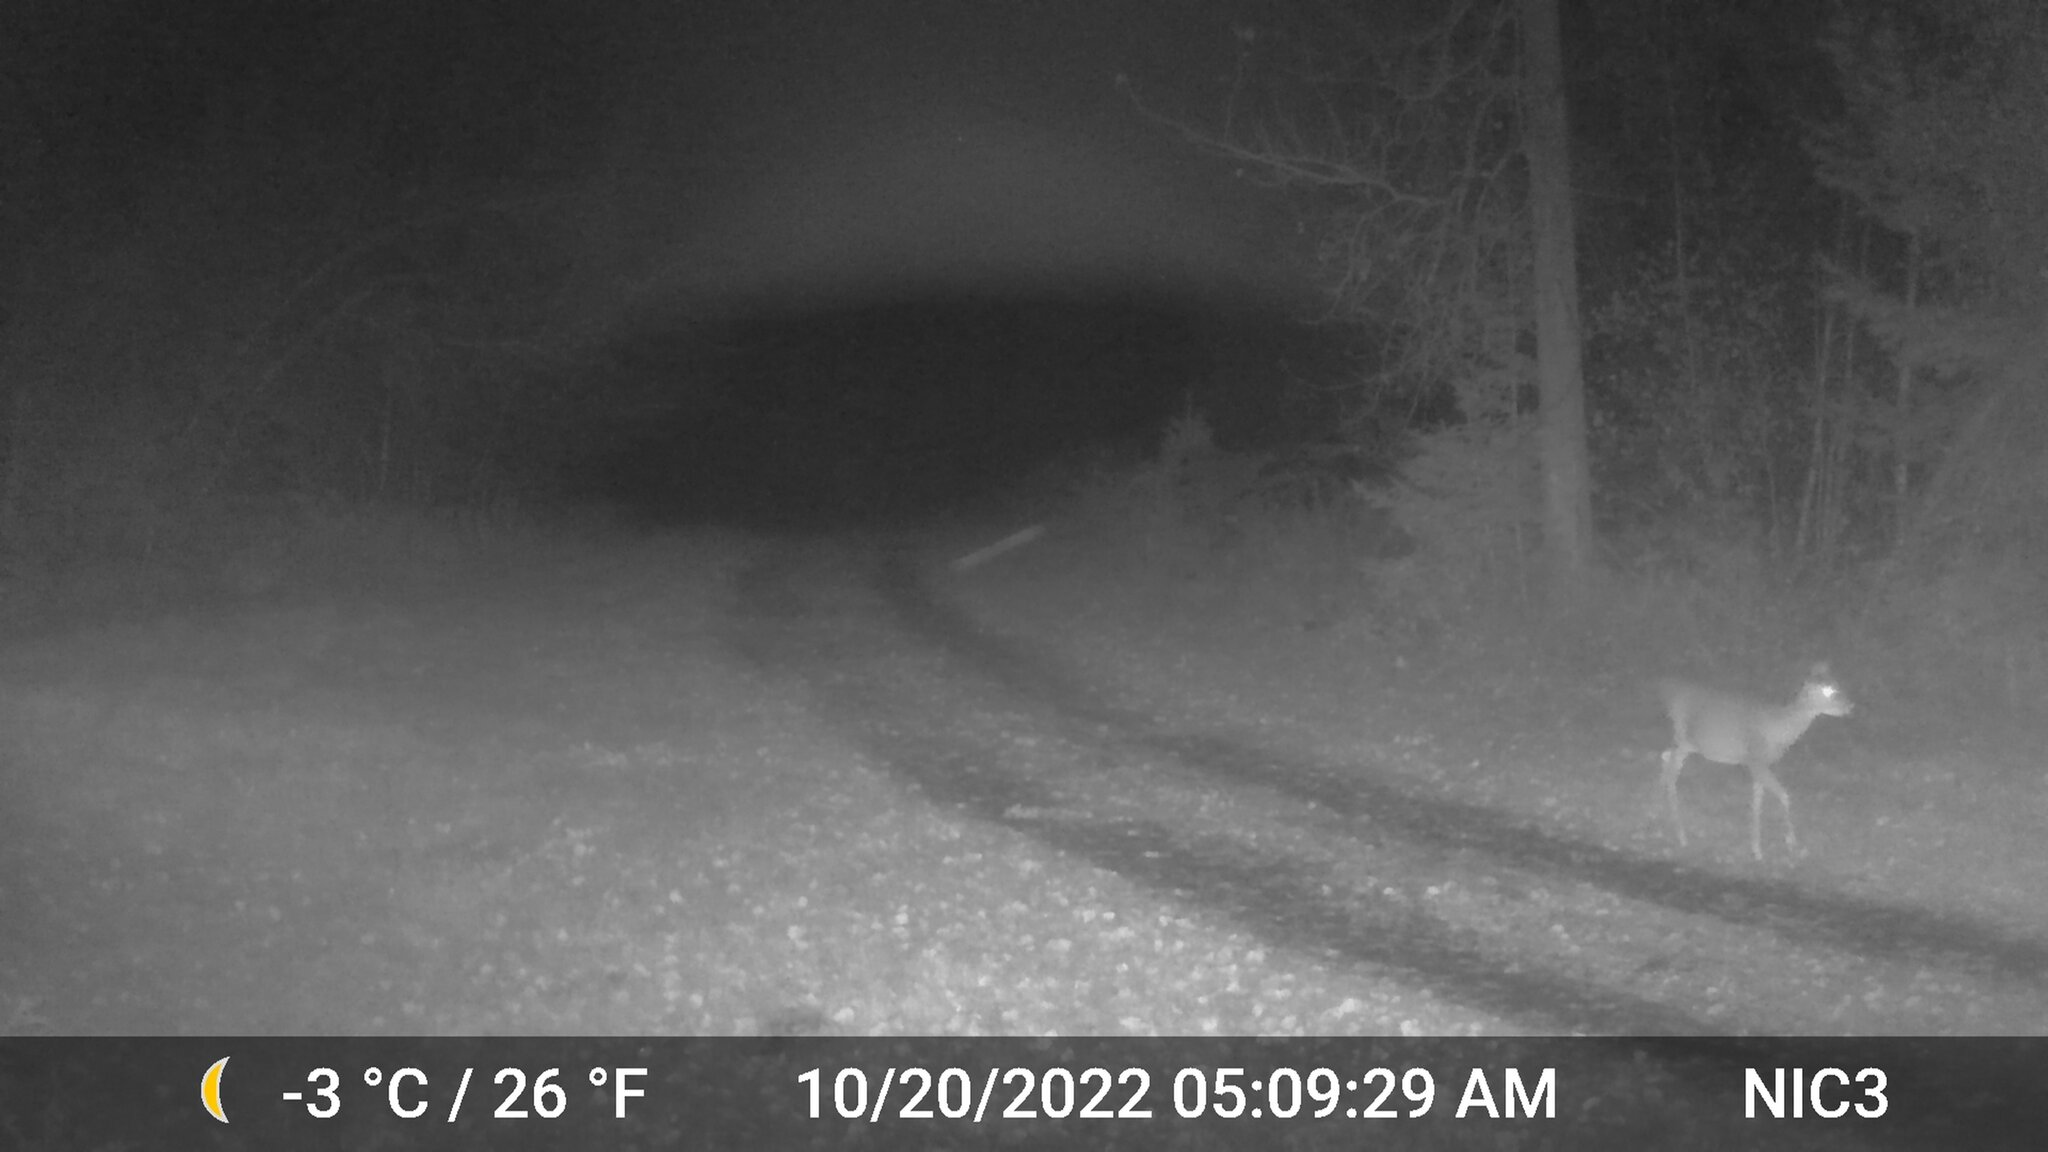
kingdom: Animalia
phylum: Chordata
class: Mammalia
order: Artiodactyla
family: Cervidae
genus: Odocoileus
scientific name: Odocoileus virginianus
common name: White-tailed deer
